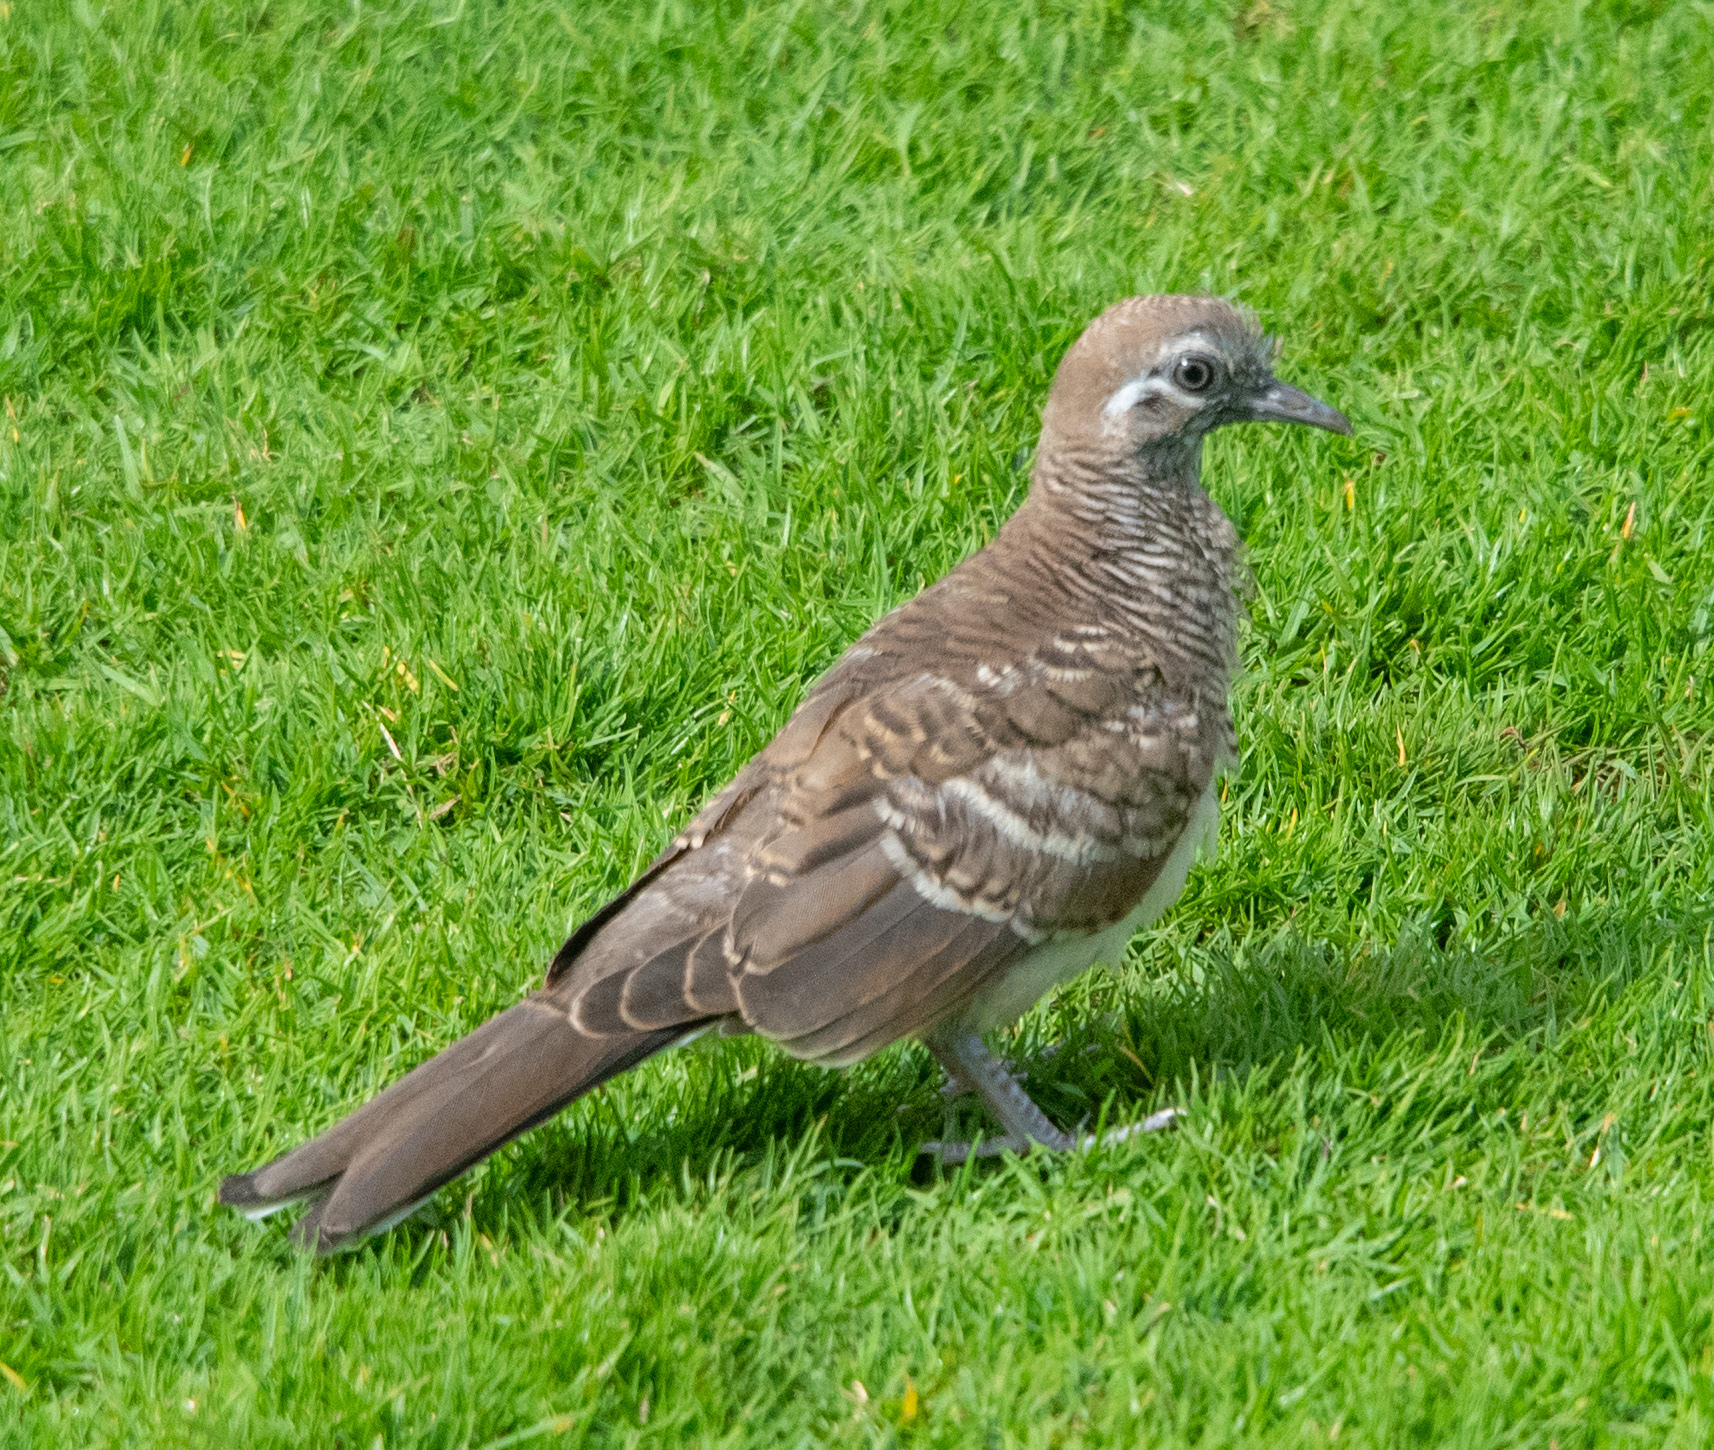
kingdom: Animalia
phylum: Chordata
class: Aves
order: Columbiformes
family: Columbidae
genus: Geopelia
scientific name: Geopelia striata
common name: Zebra dove
